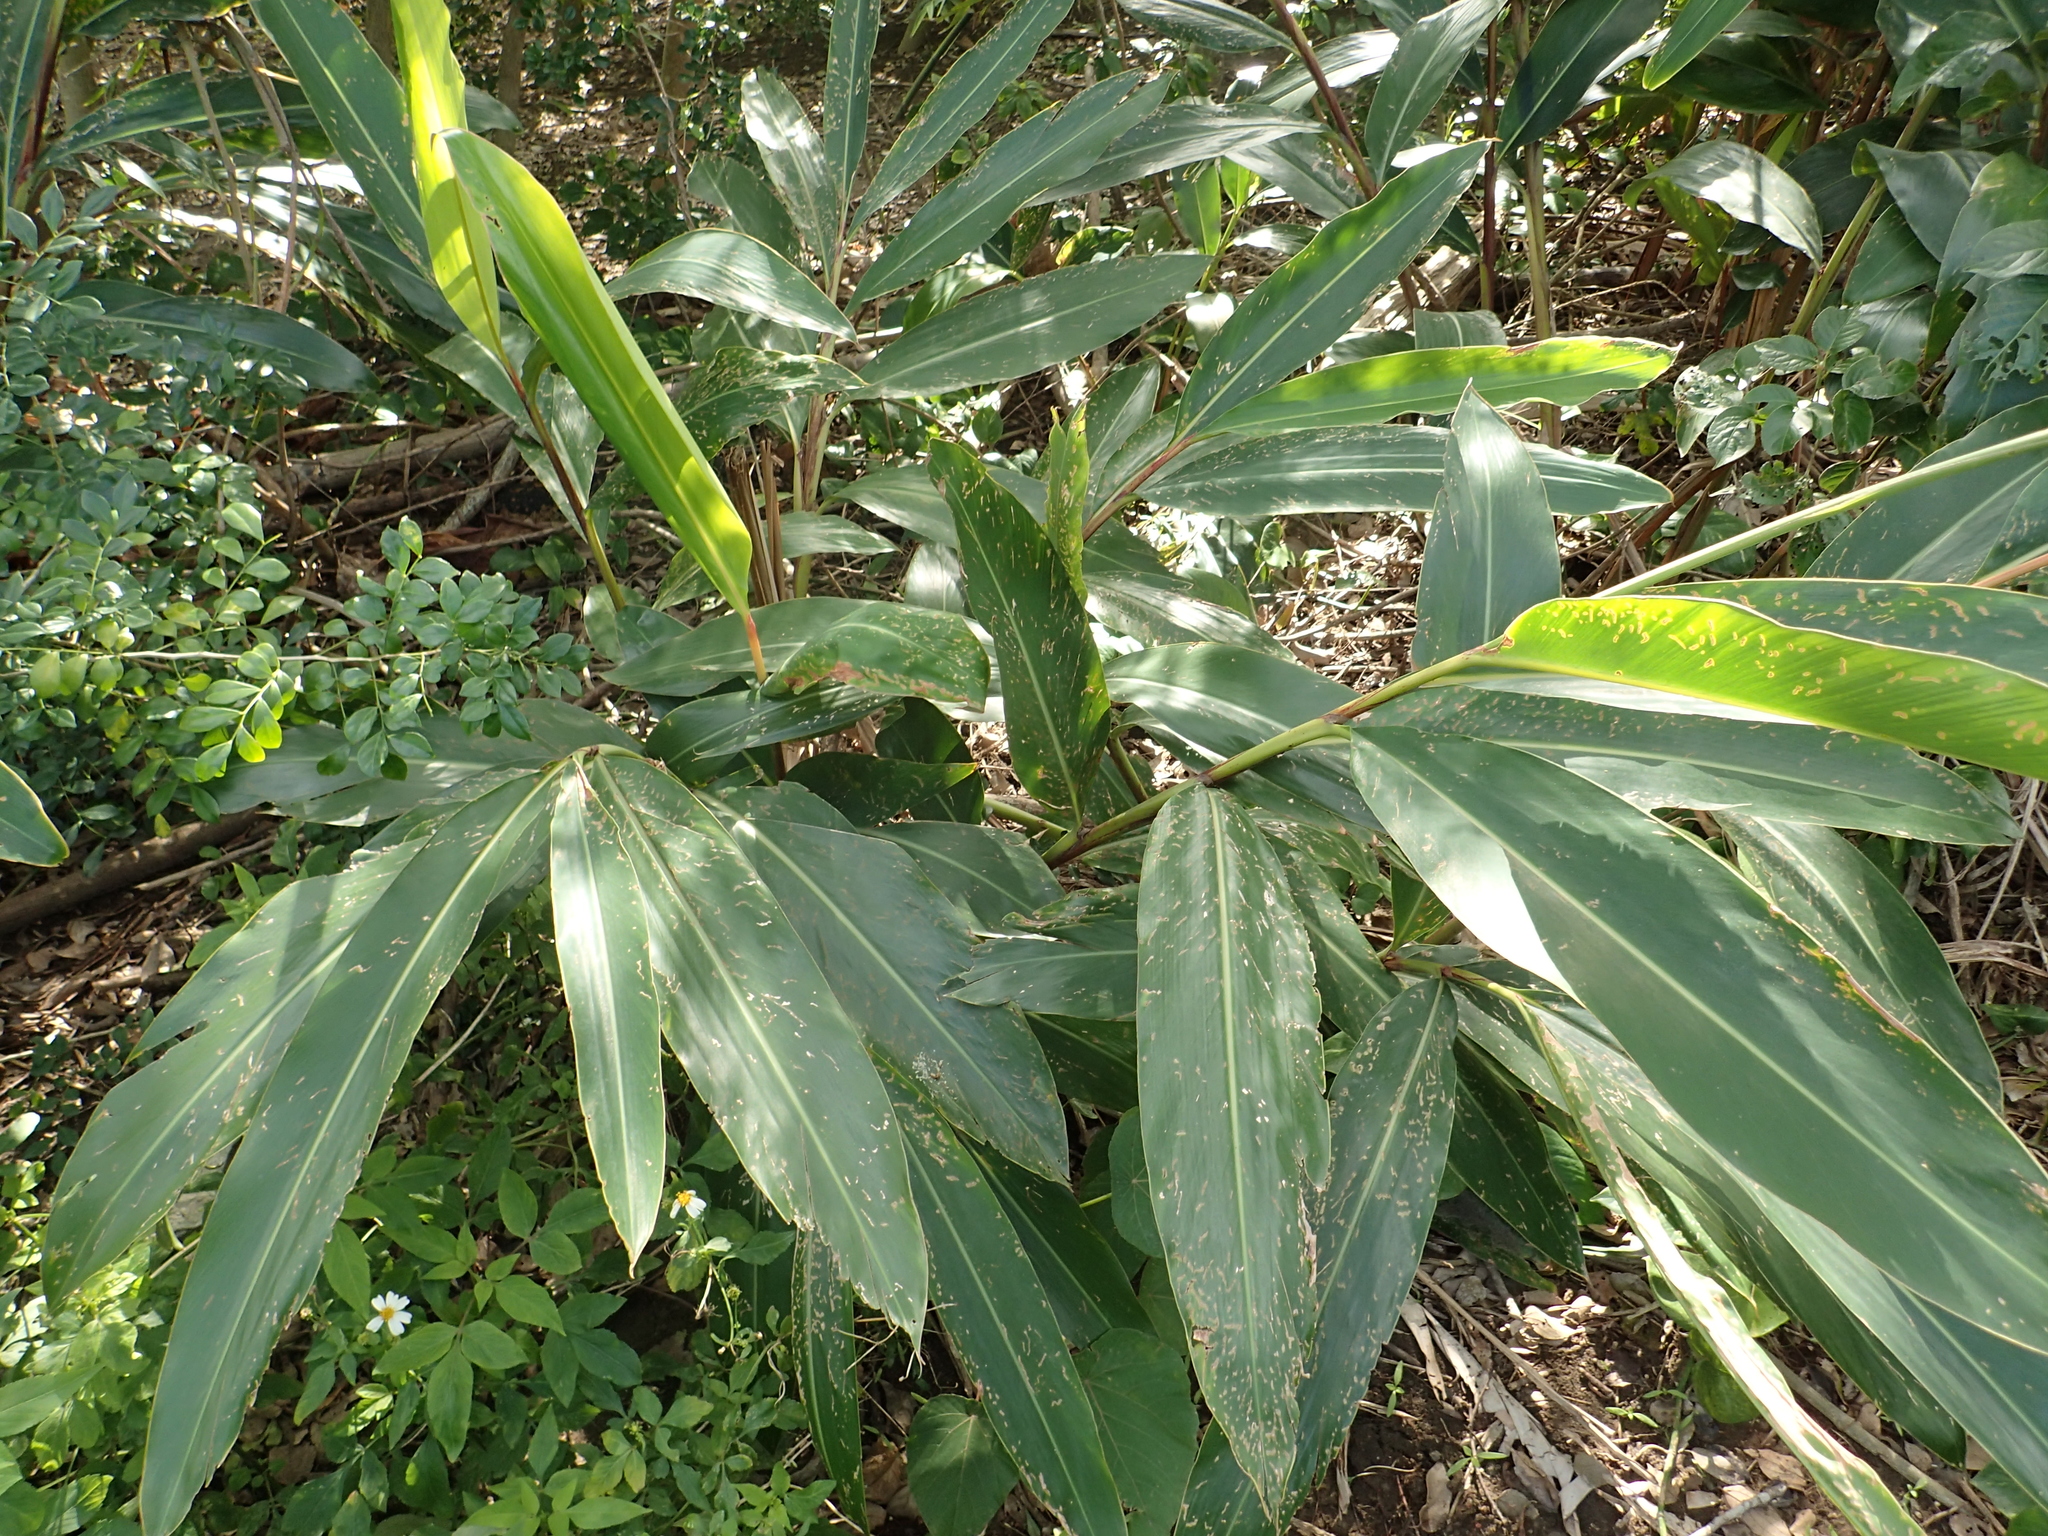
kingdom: Plantae
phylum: Tracheophyta
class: Liliopsida
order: Zingiberales
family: Zingiberaceae
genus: Alpinia
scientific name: Alpinia zerumbet
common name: Shellplant
